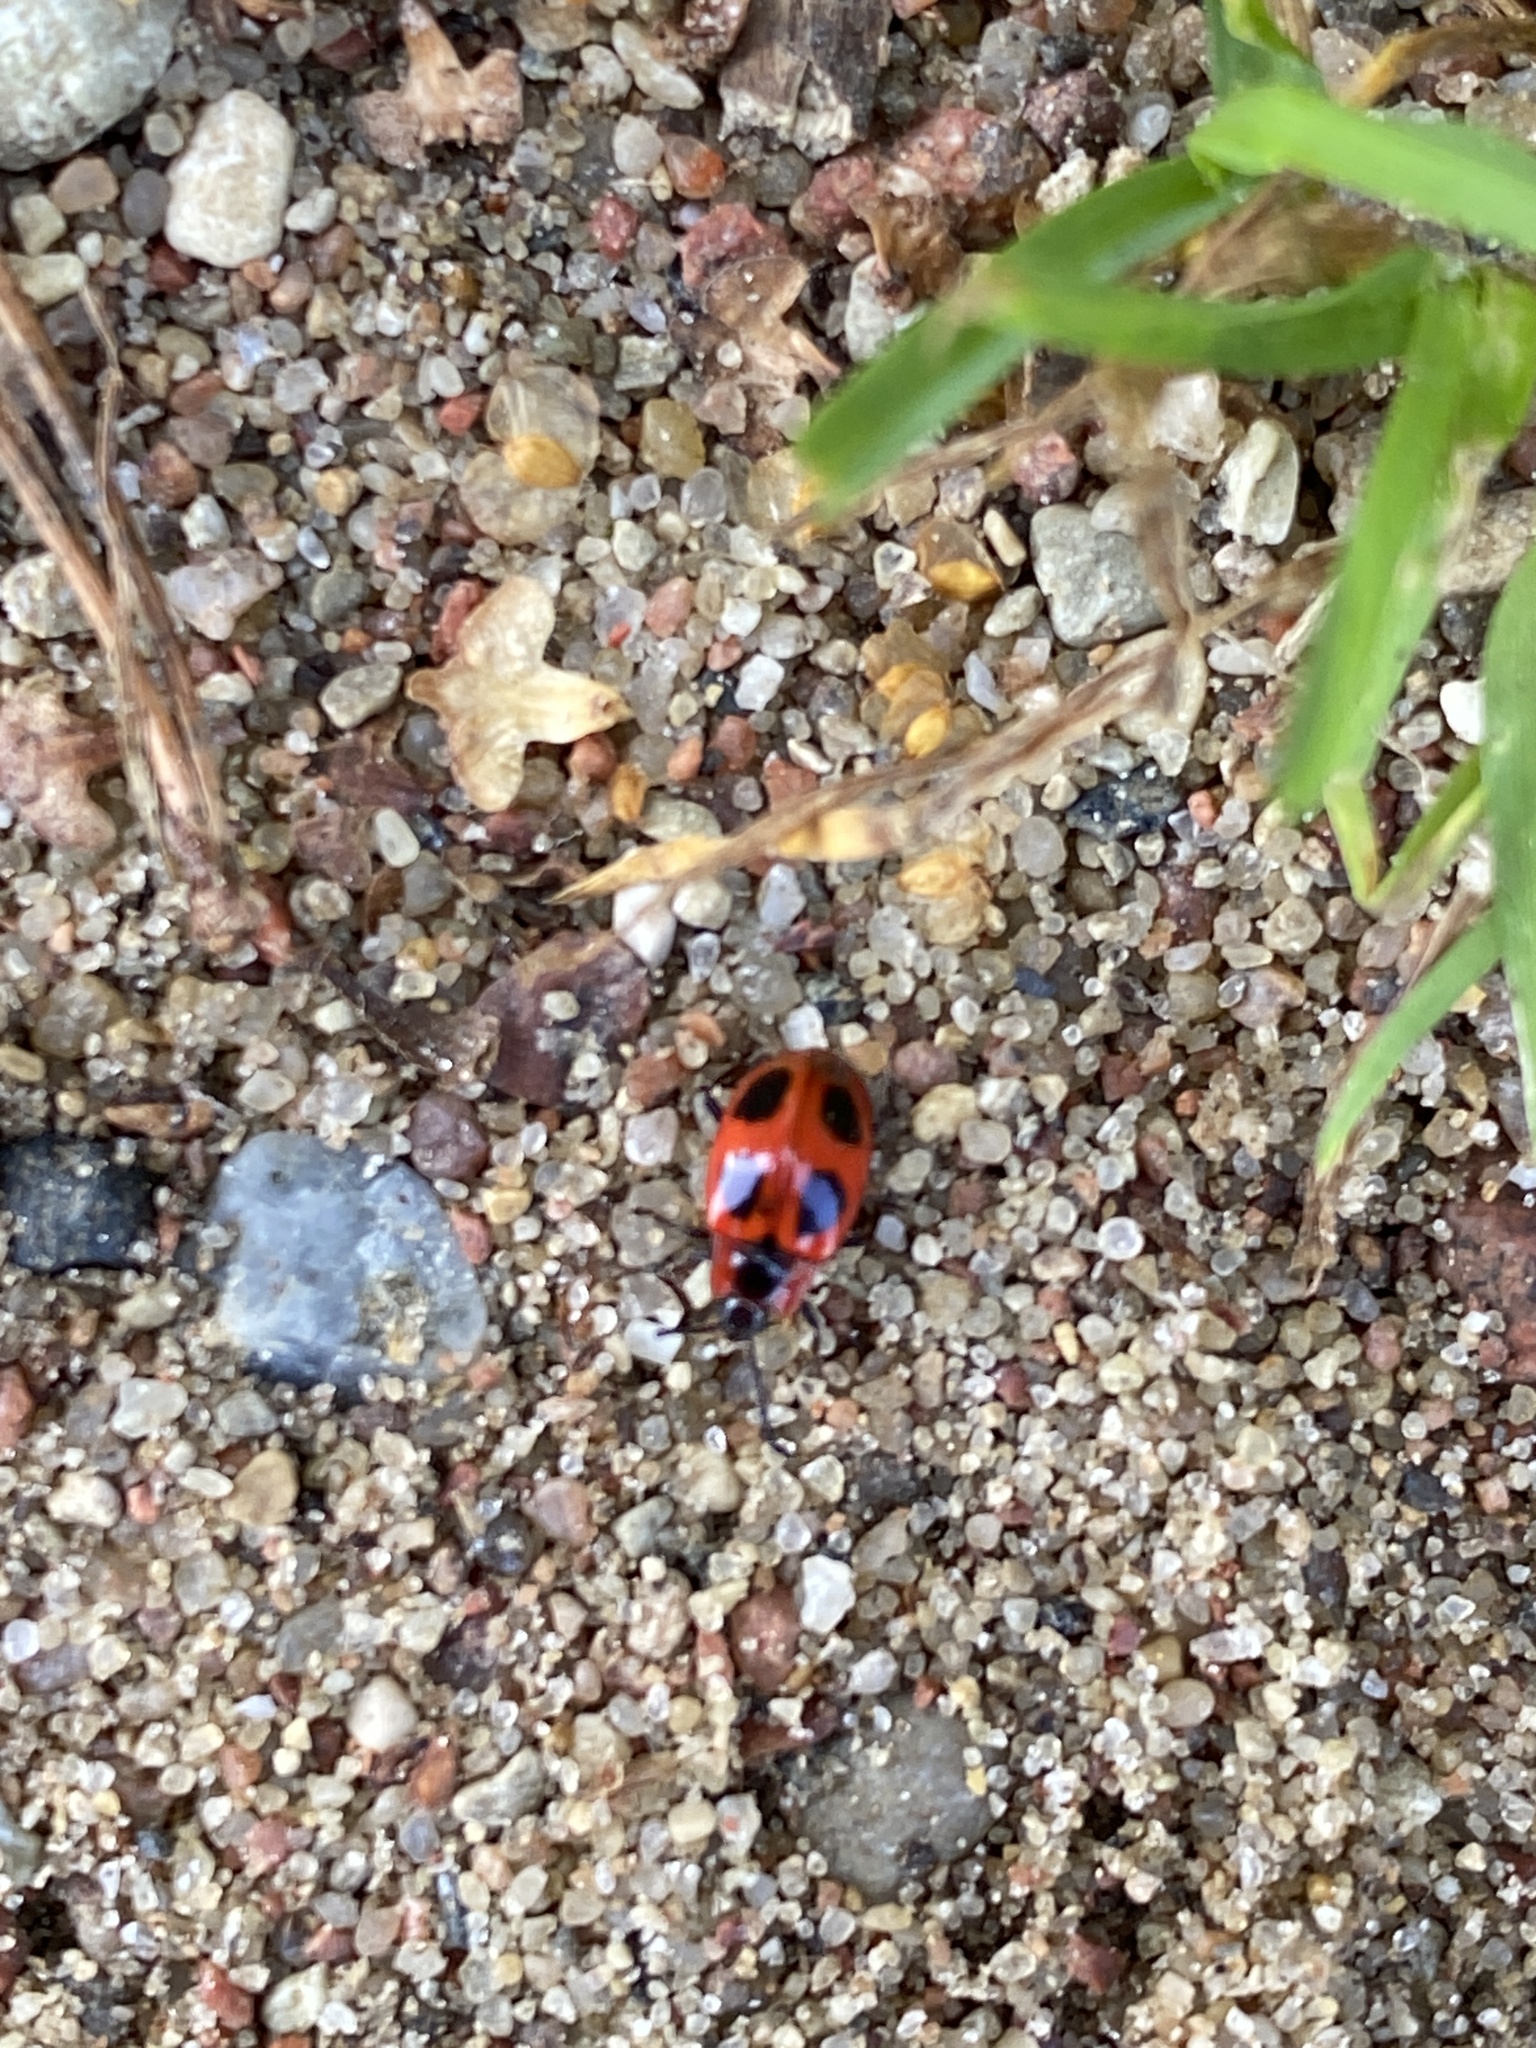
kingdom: Animalia
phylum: Arthropoda
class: Insecta
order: Coleoptera
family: Endomychidae
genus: Endomychus
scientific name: Endomychus coccineus
